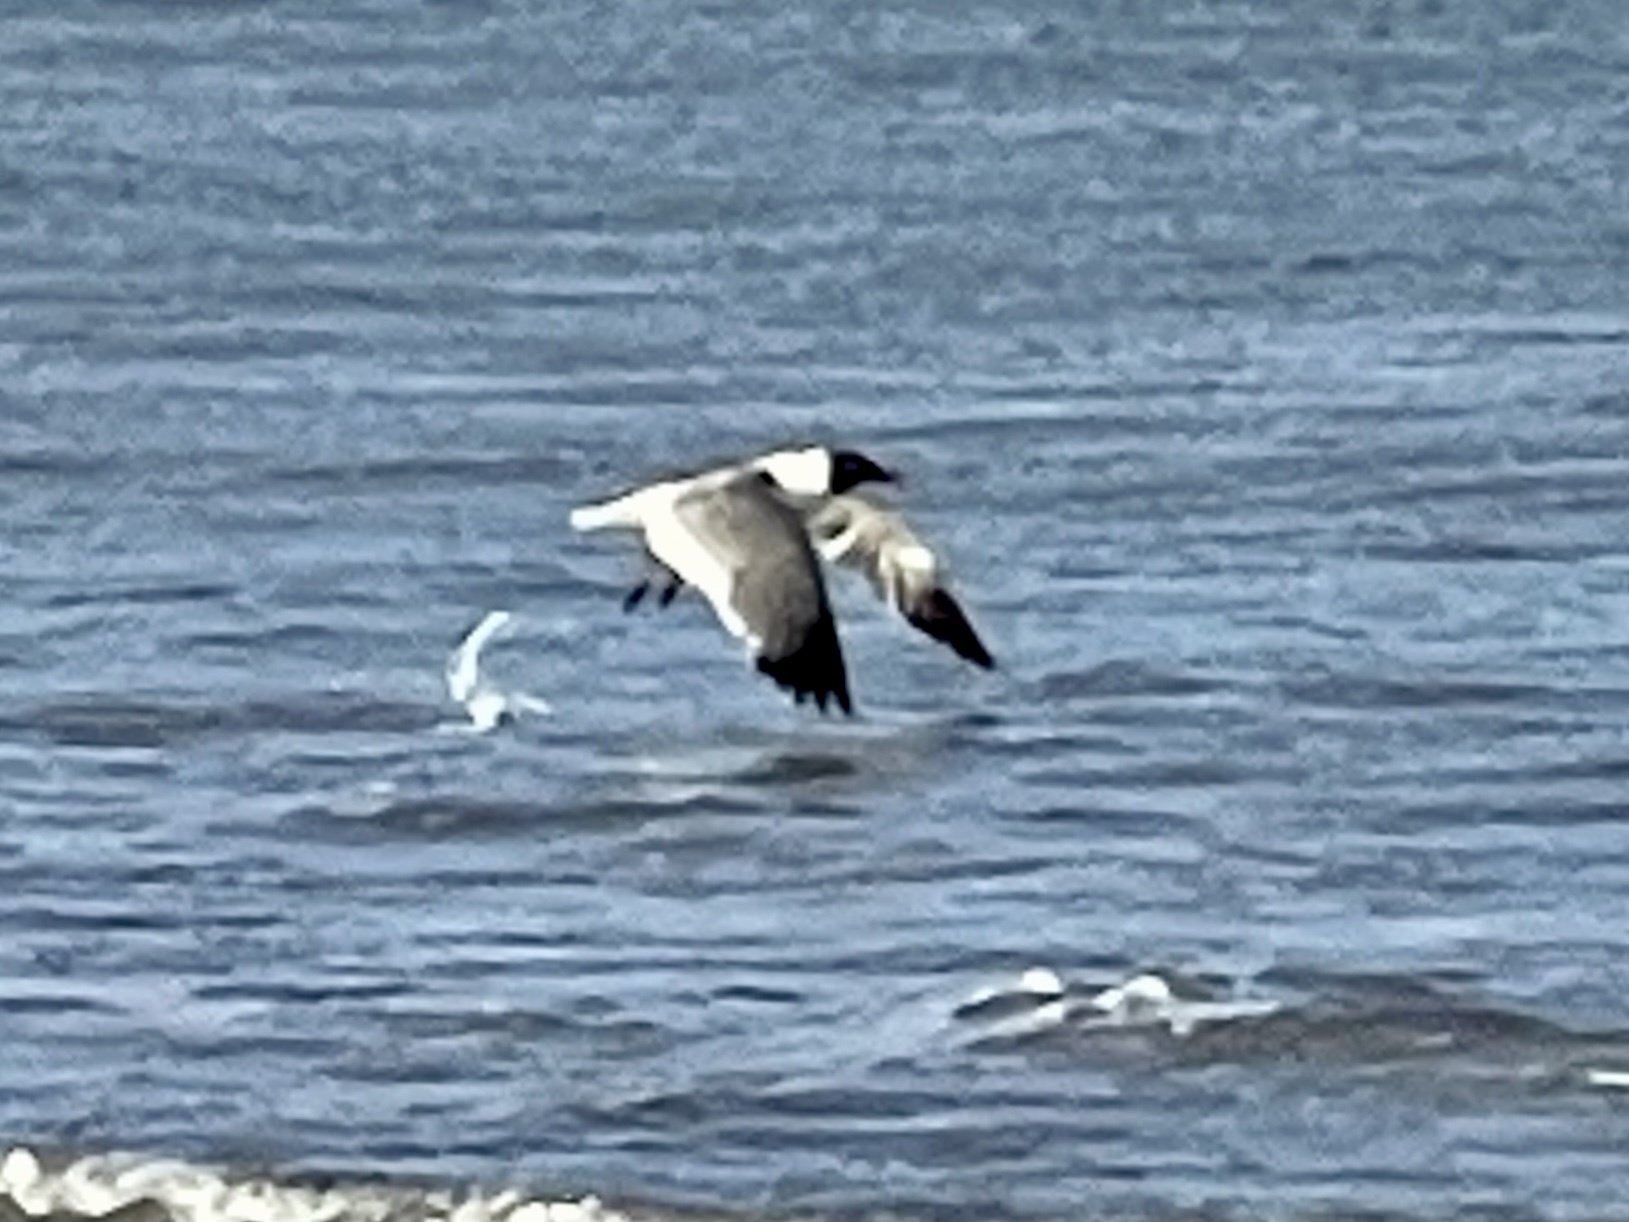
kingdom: Animalia
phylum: Chordata
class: Aves
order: Charadriiformes
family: Laridae
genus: Leucophaeus
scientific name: Leucophaeus atricilla
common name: Laughing gull
